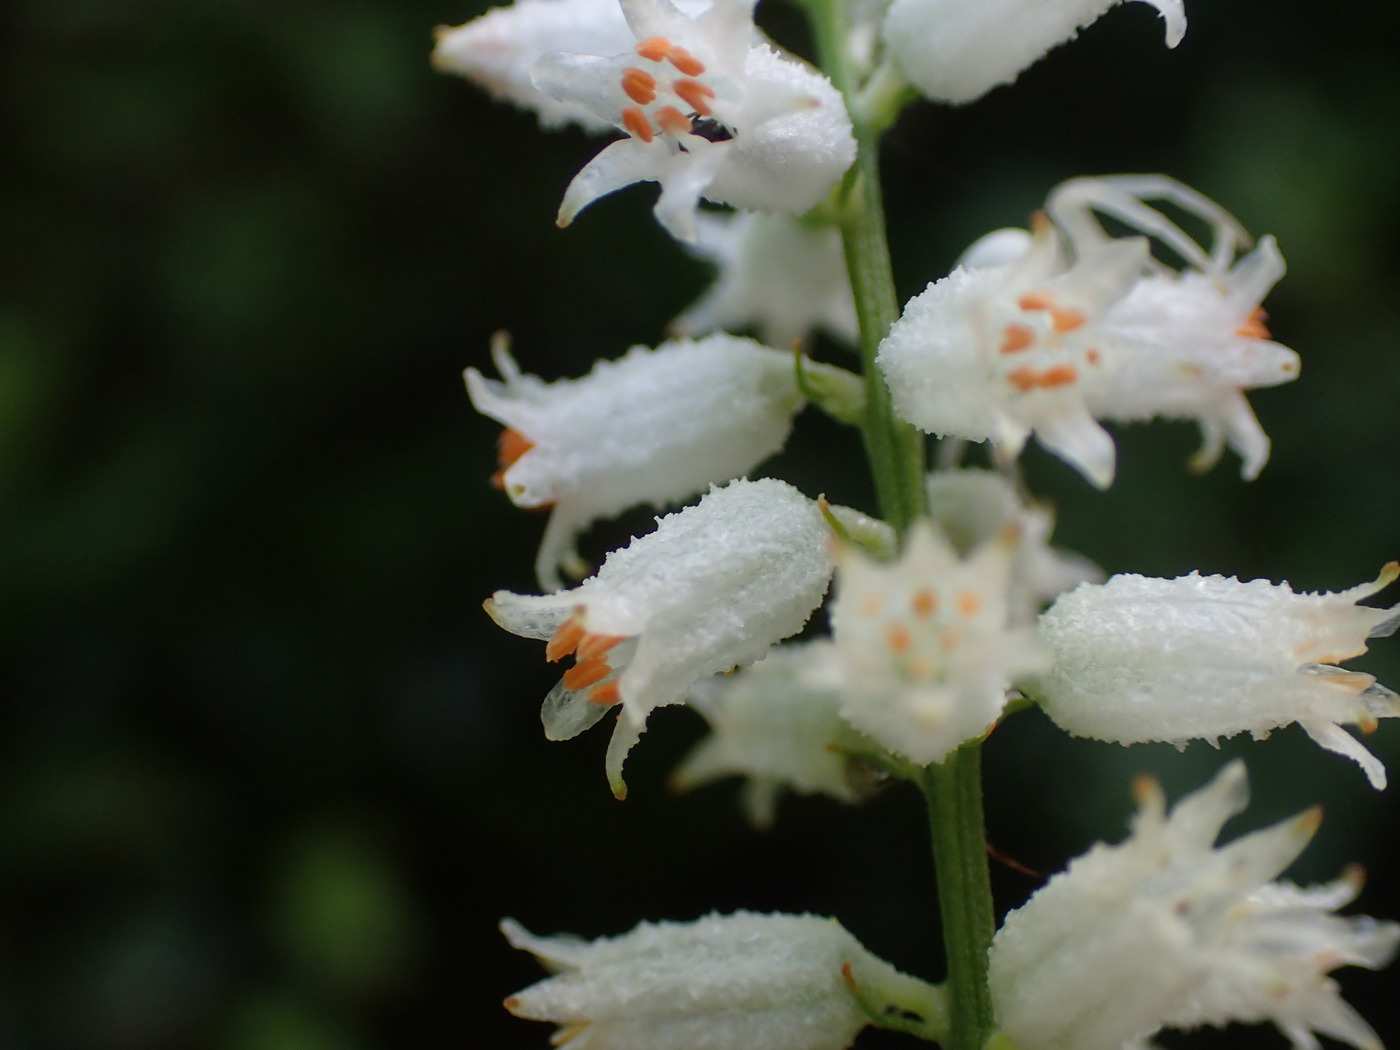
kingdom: Plantae
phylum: Tracheophyta
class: Liliopsida
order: Dioscoreales
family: Nartheciaceae
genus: Aletris
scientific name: Aletris farinosa
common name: Colicroot
